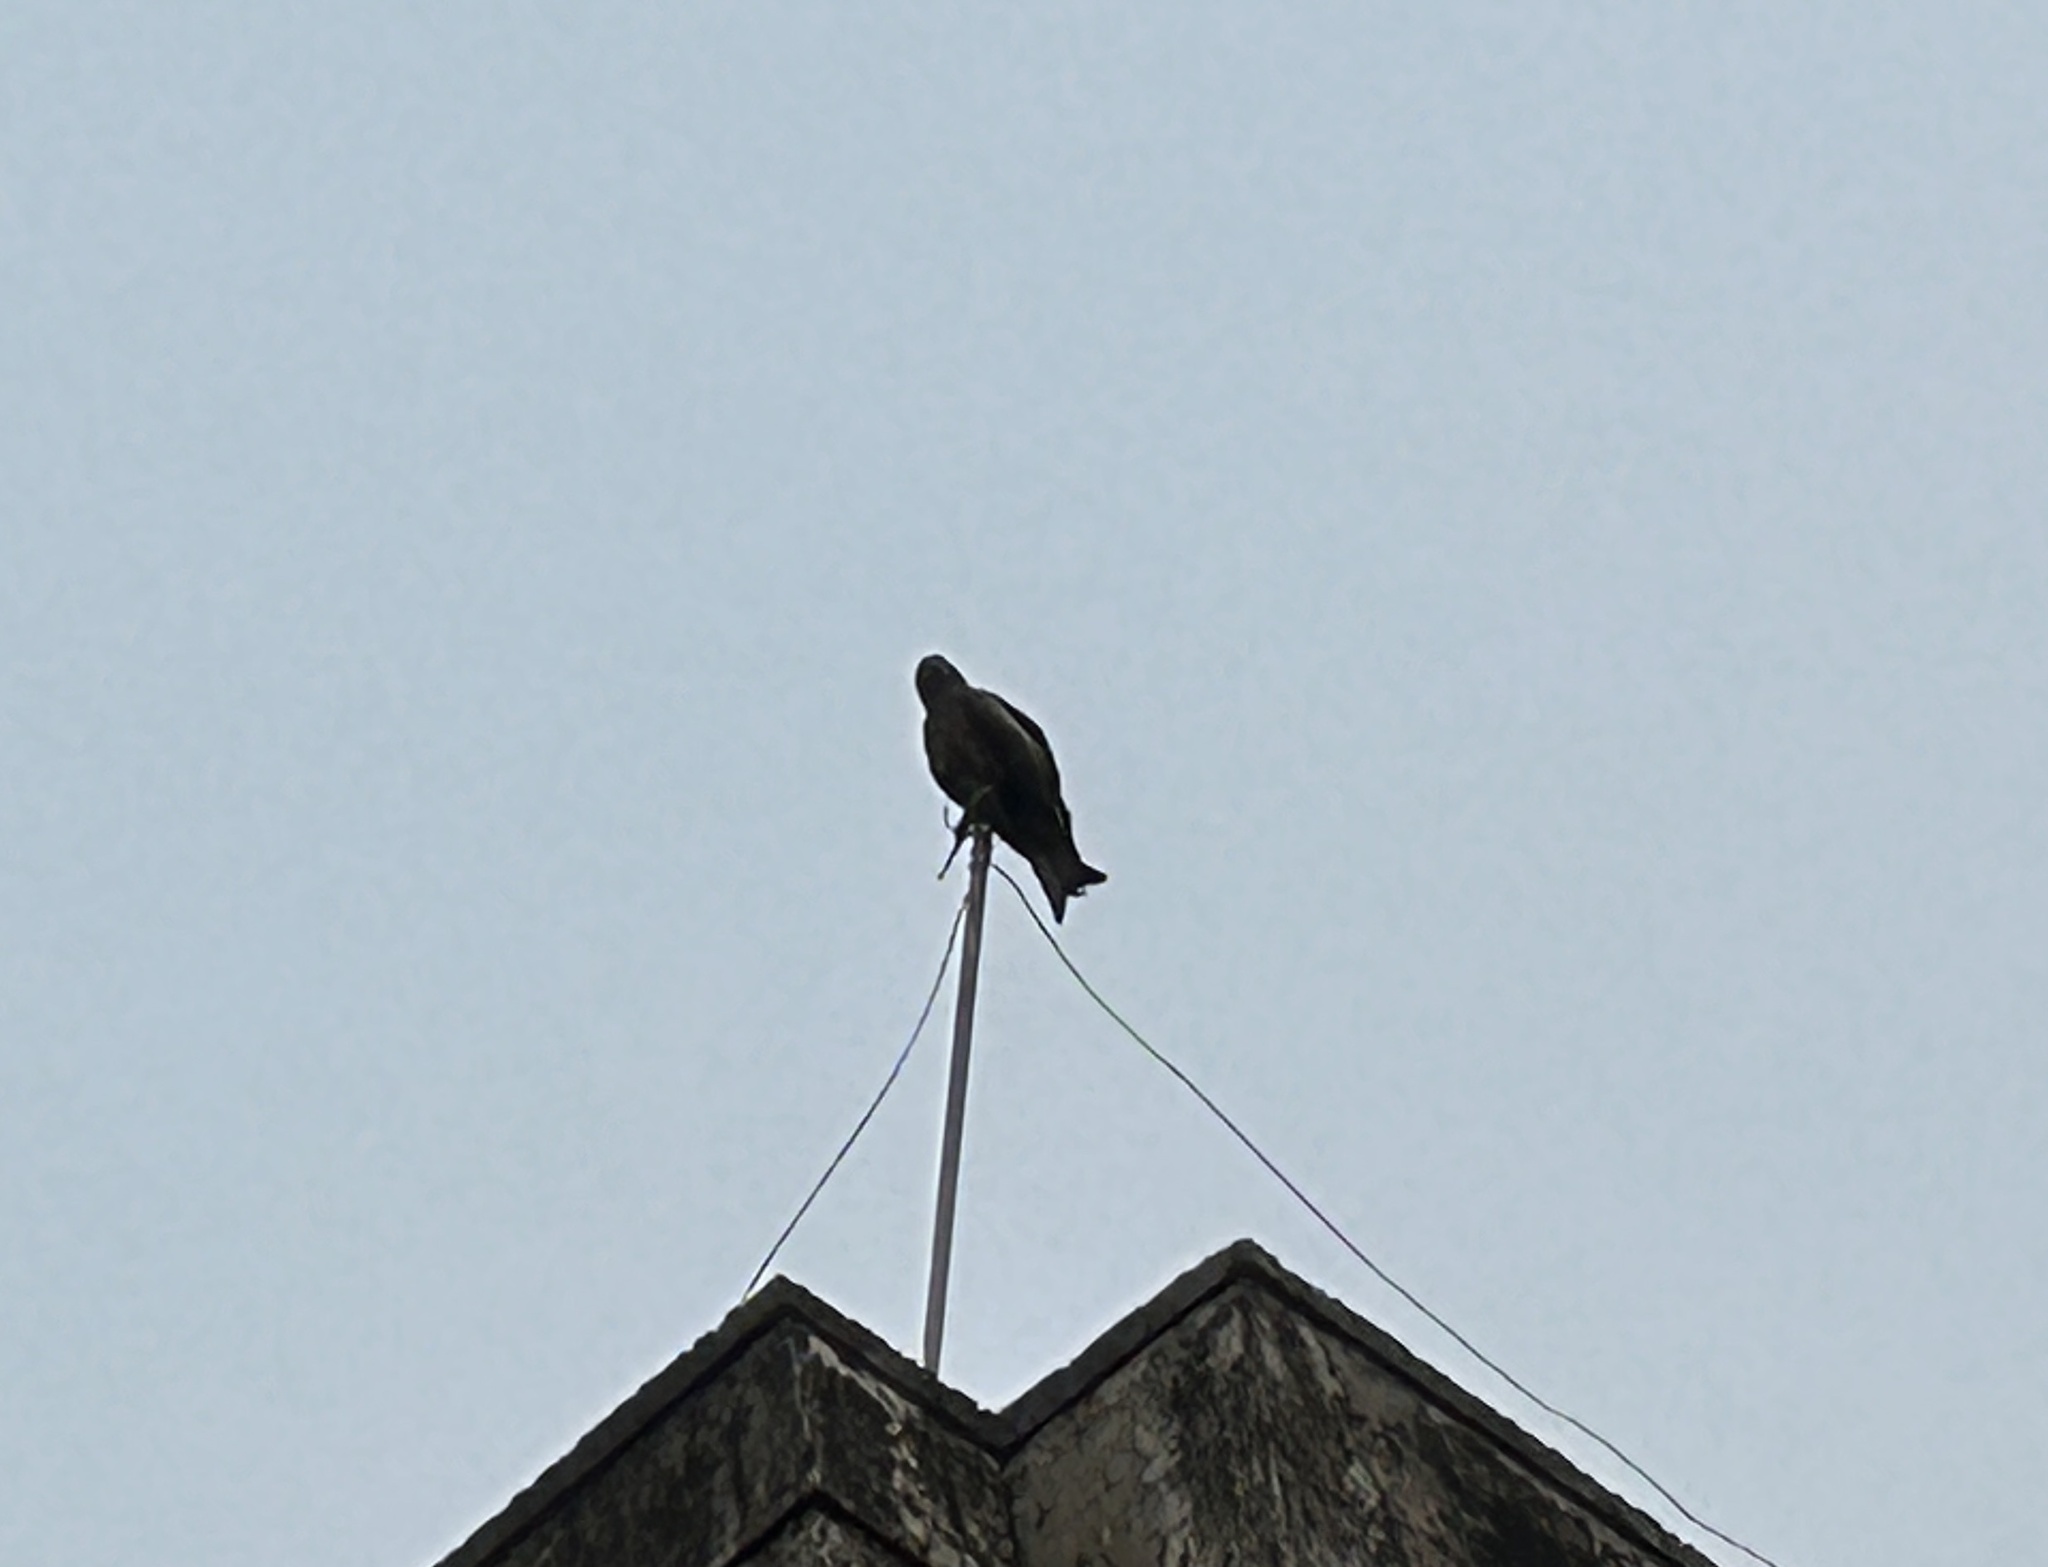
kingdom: Animalia
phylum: Chordata
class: Aves
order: Accipitriformes
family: Accipitridae
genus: Milvus
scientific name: Milvus migrans
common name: Black kite
